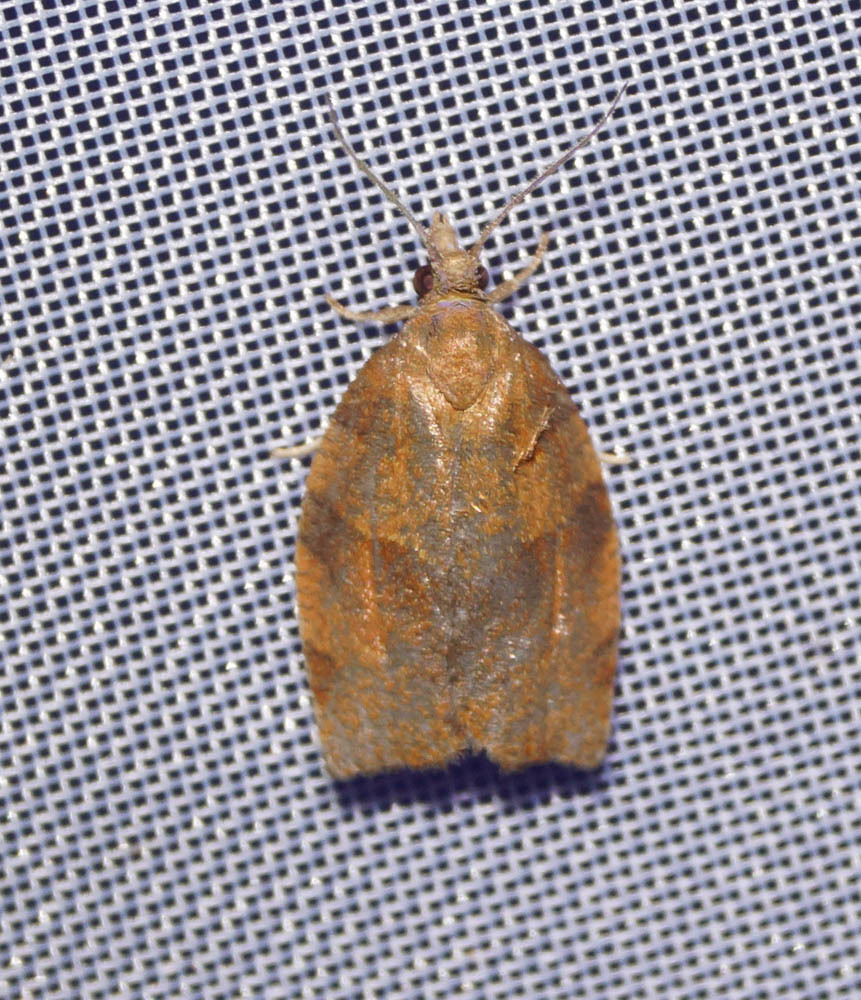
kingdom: Animalia
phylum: Arthropoda
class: Insecta
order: Lepidoptera
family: Tortricidae
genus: Pandemis
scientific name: Pandemis heparana
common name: Dark fruit-tree tortrix
